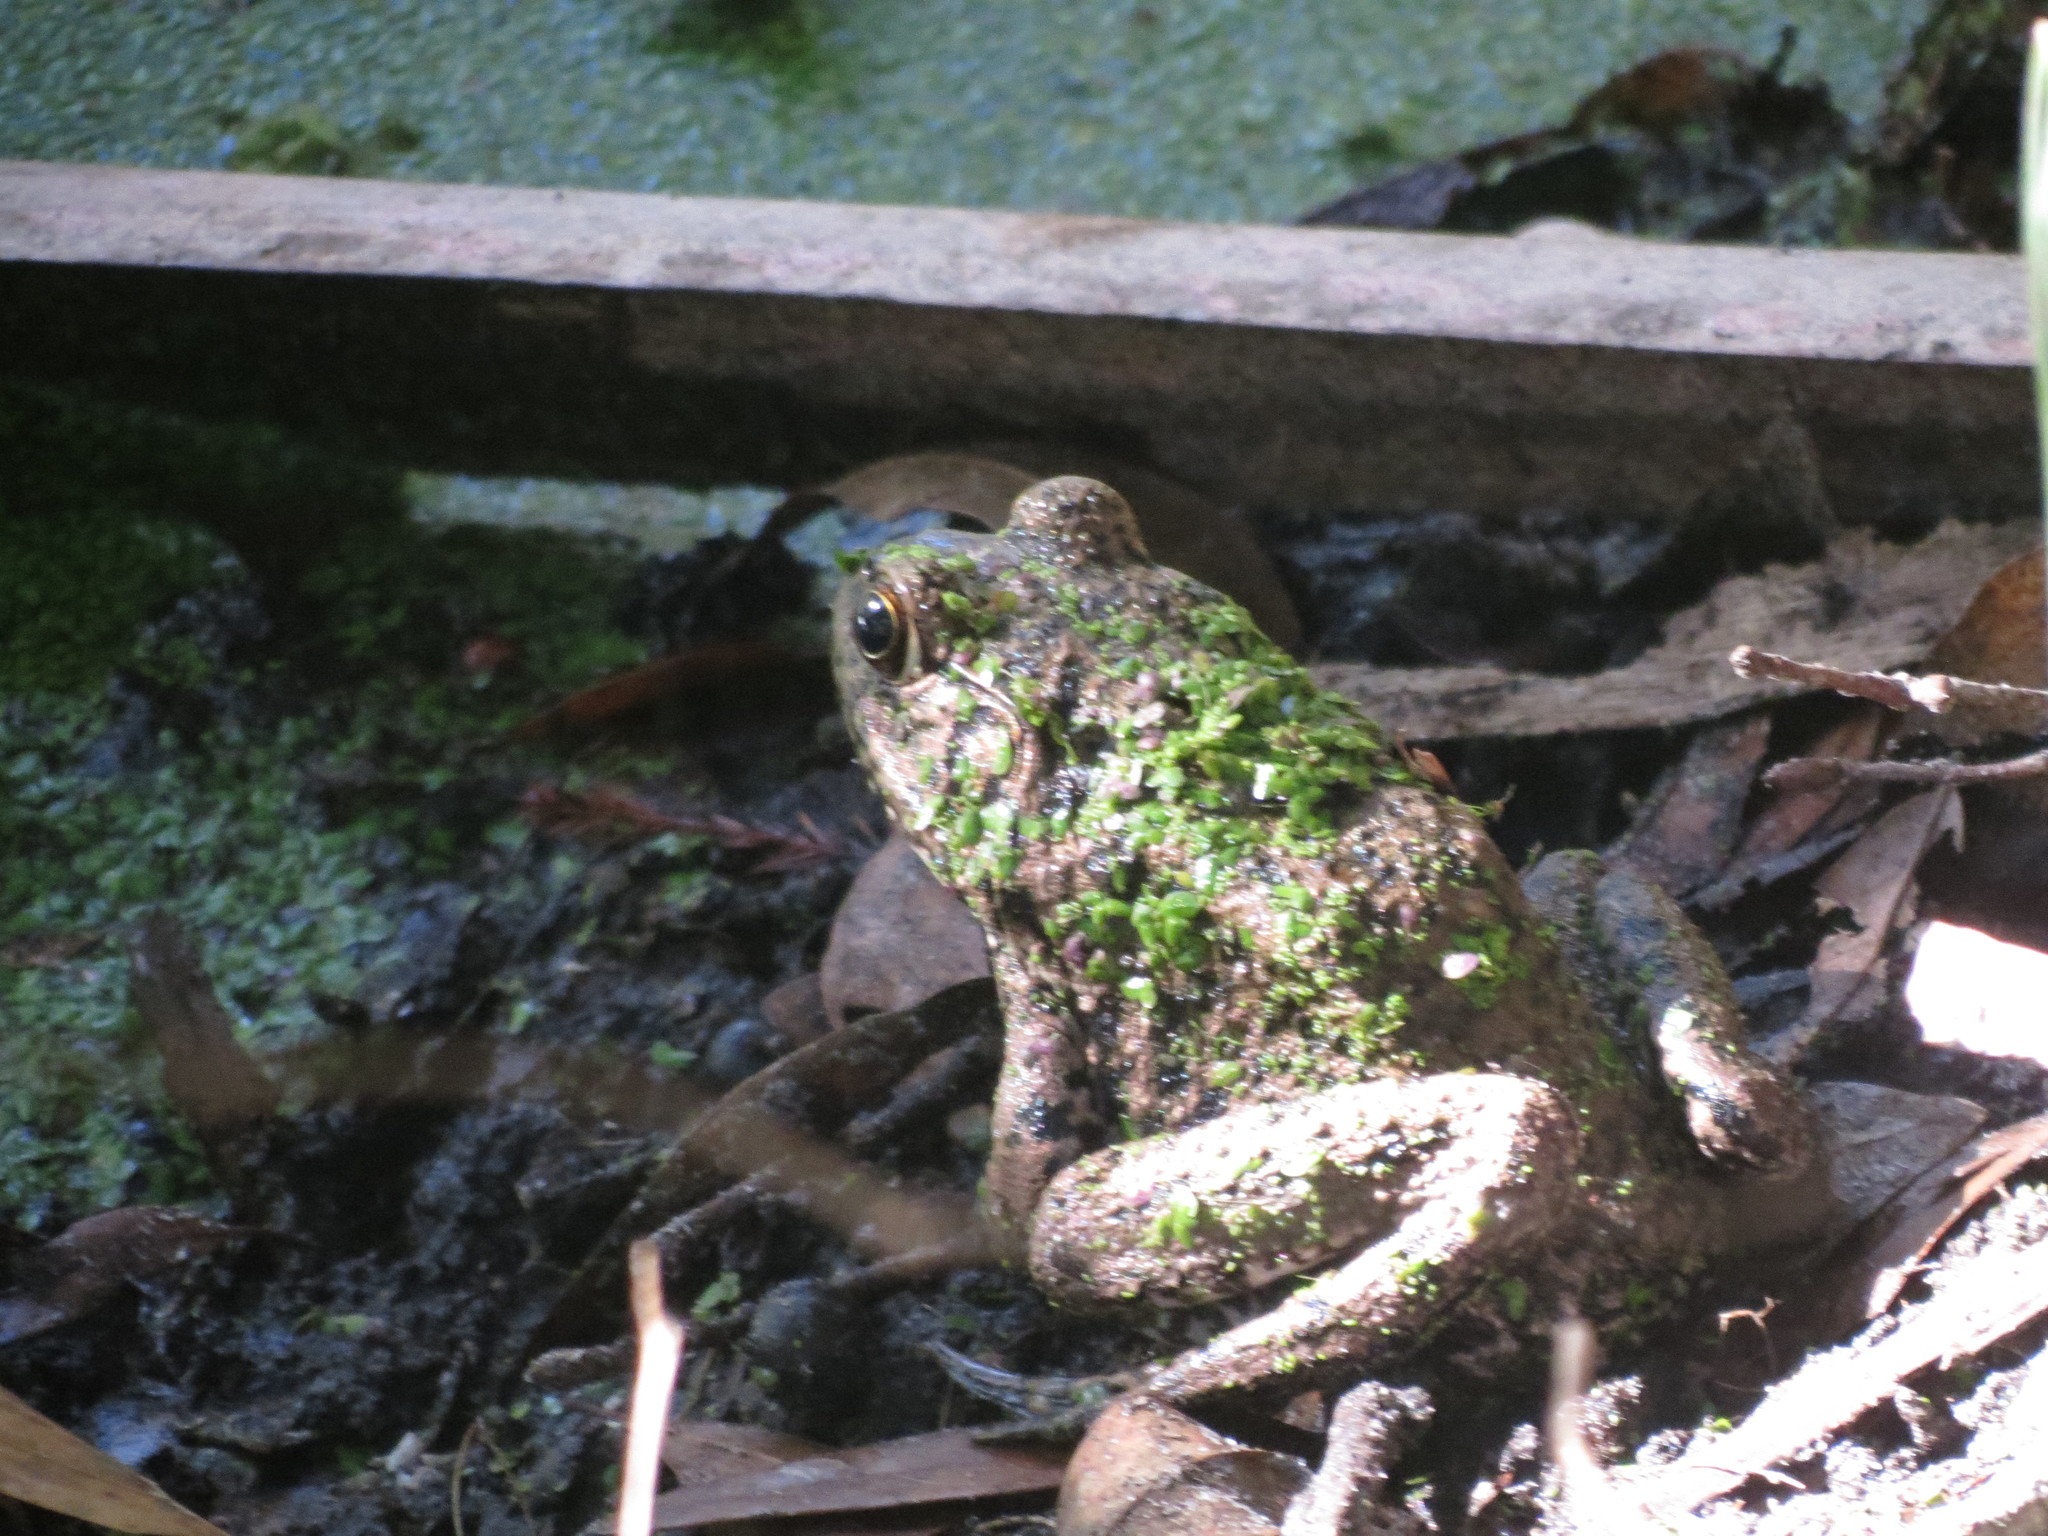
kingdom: Animalia
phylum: Chordata
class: Amphibia
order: Anura
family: Ranidae
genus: Lithobates
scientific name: Lithobates heckscheri
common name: River frog
